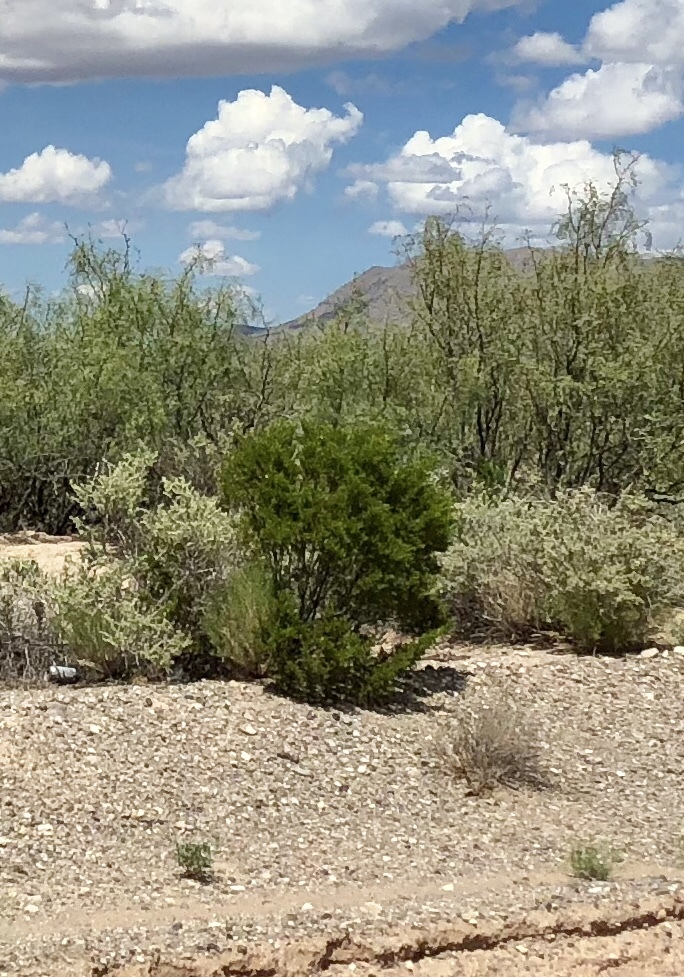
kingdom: Plantae
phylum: Tracheophyta
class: Magnoliopsida
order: Zygophyllales
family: Zygophyllaceae
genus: Larrea
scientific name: Larrea tridentata
